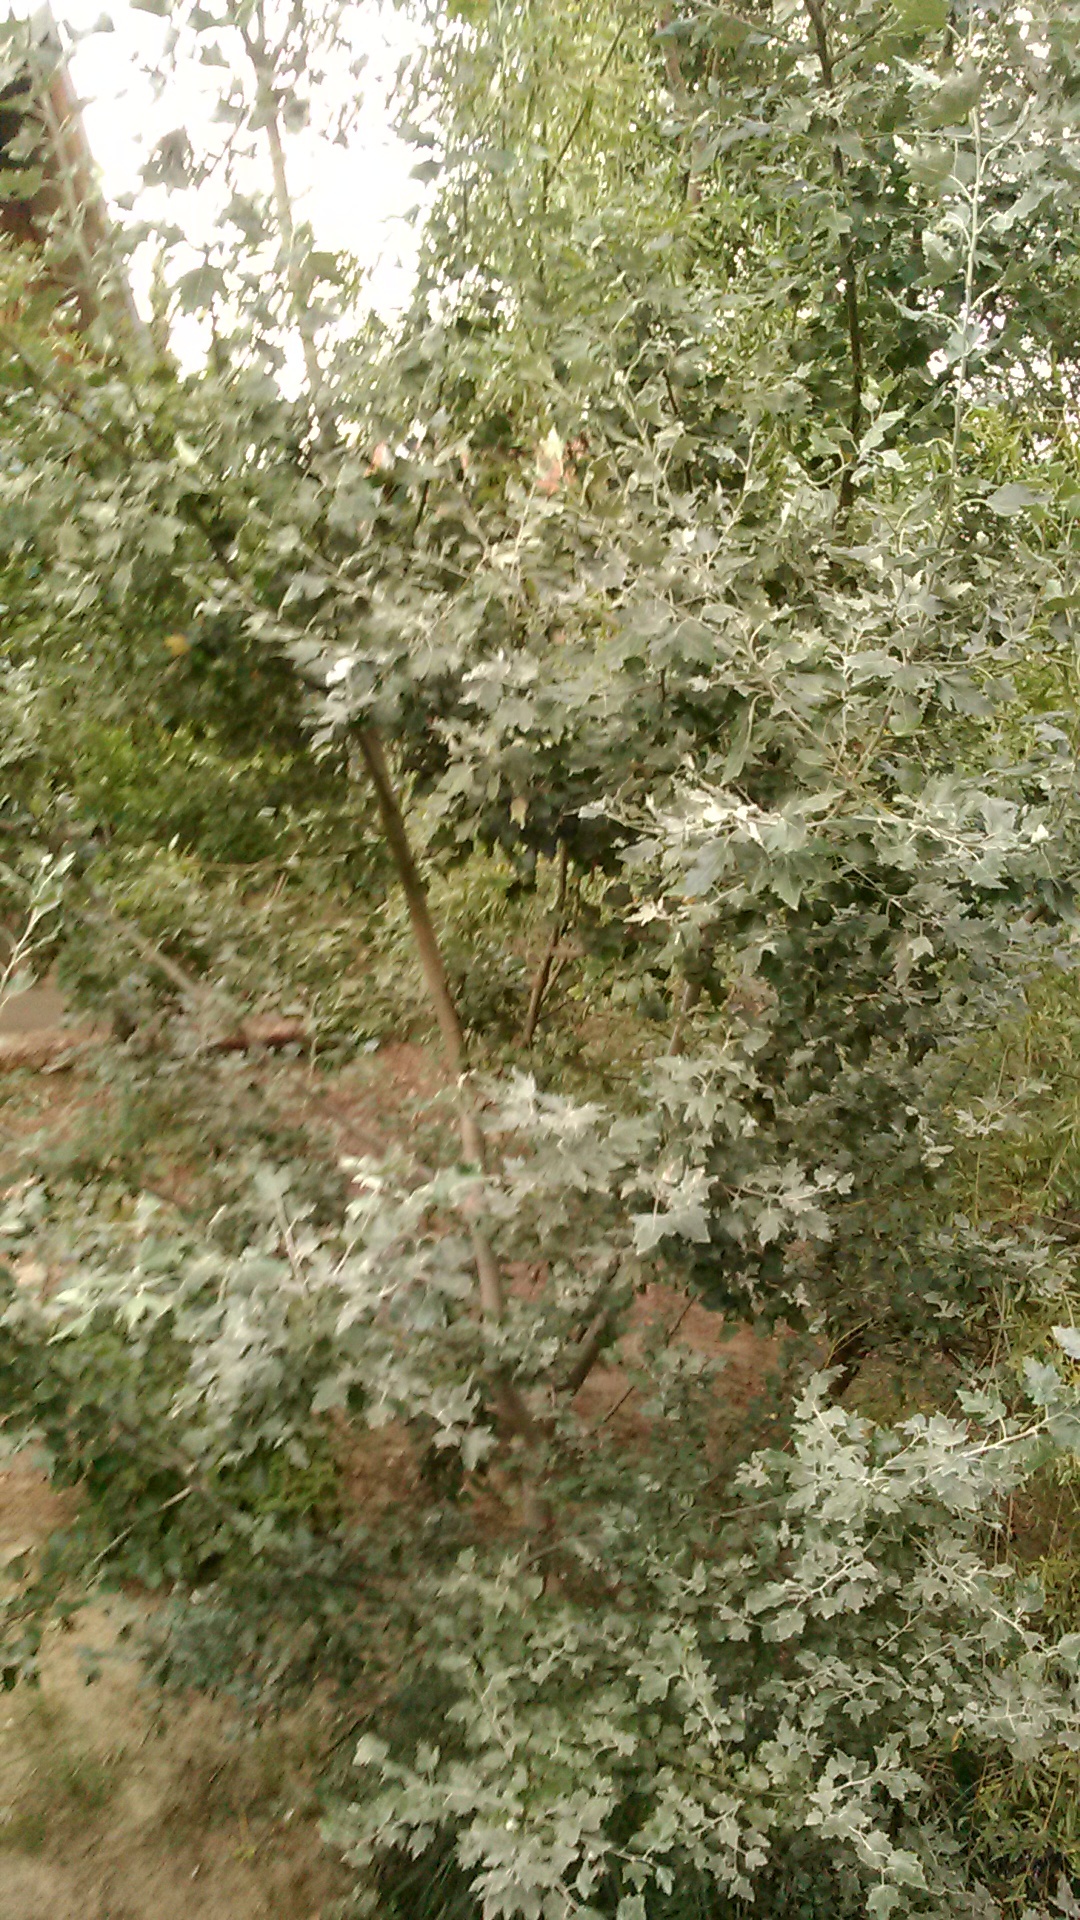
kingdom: Plantae
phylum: Tracheophyta
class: Magnoliopsida
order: Malpighiales
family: Salicaceae
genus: Populus
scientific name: Populus alba
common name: White poplar
